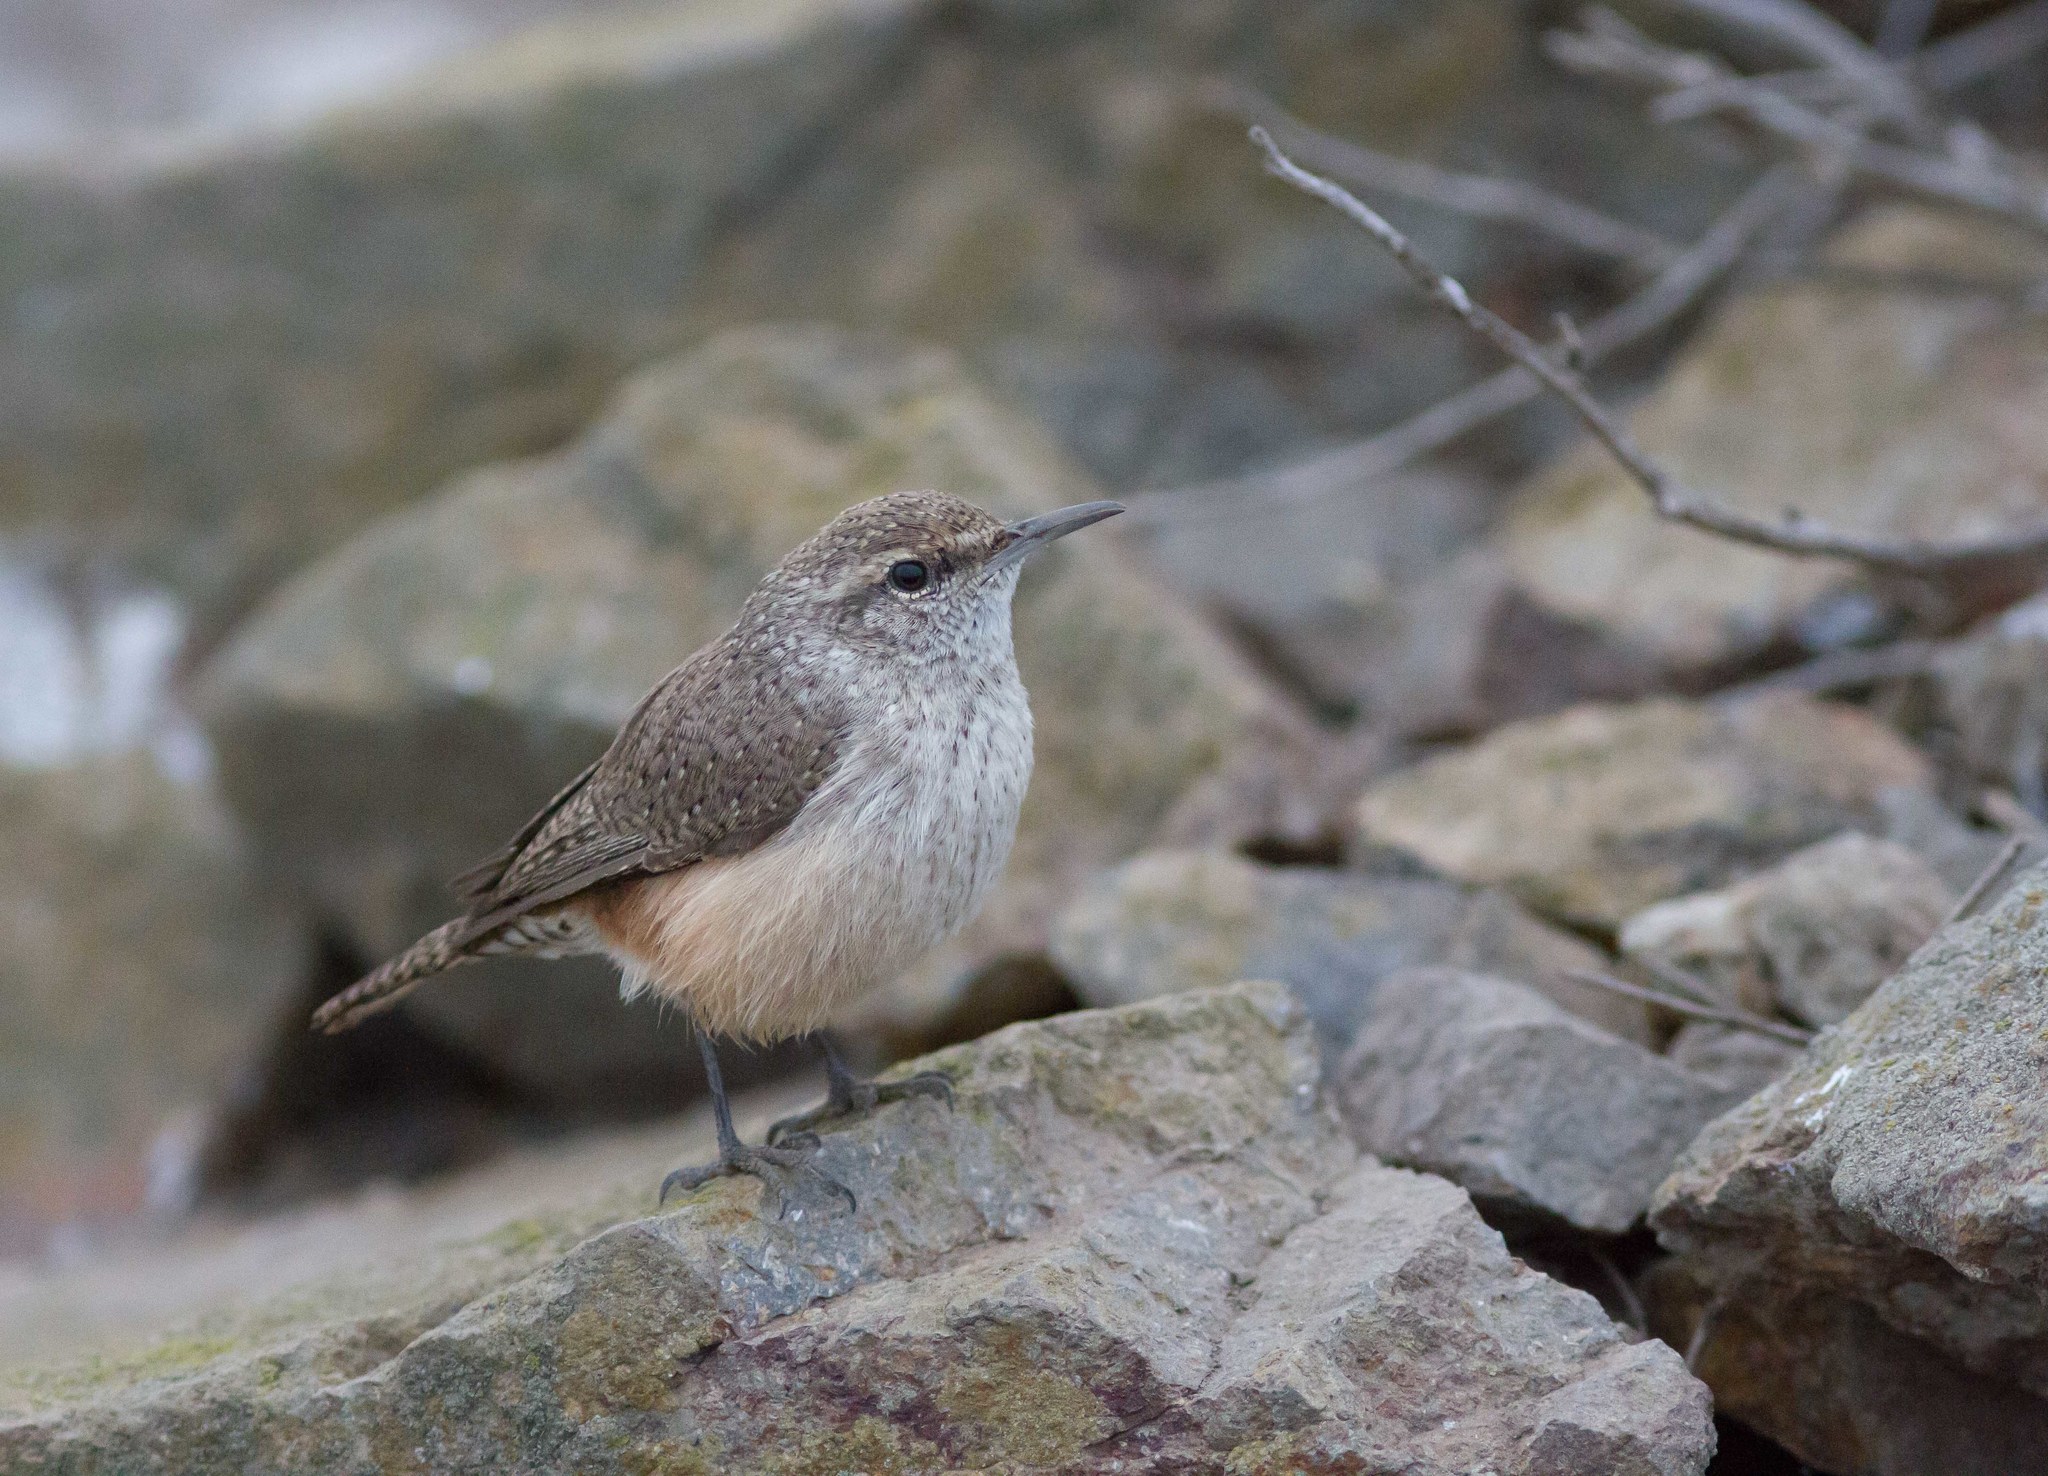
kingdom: Animalia
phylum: Chordata
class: Aves
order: Passeriformes
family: Troglodytidae
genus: Salpinctes
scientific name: Salpinctes obsoletus
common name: Rock wren
